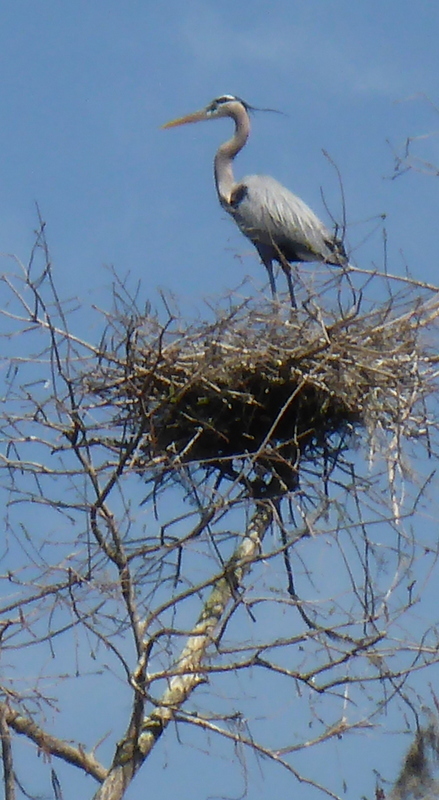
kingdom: Animalia
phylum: Chordata
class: Aves
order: Pelecaniformes
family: Ardeidae
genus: Ardea
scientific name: Ardea herodias
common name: Great blue heron
